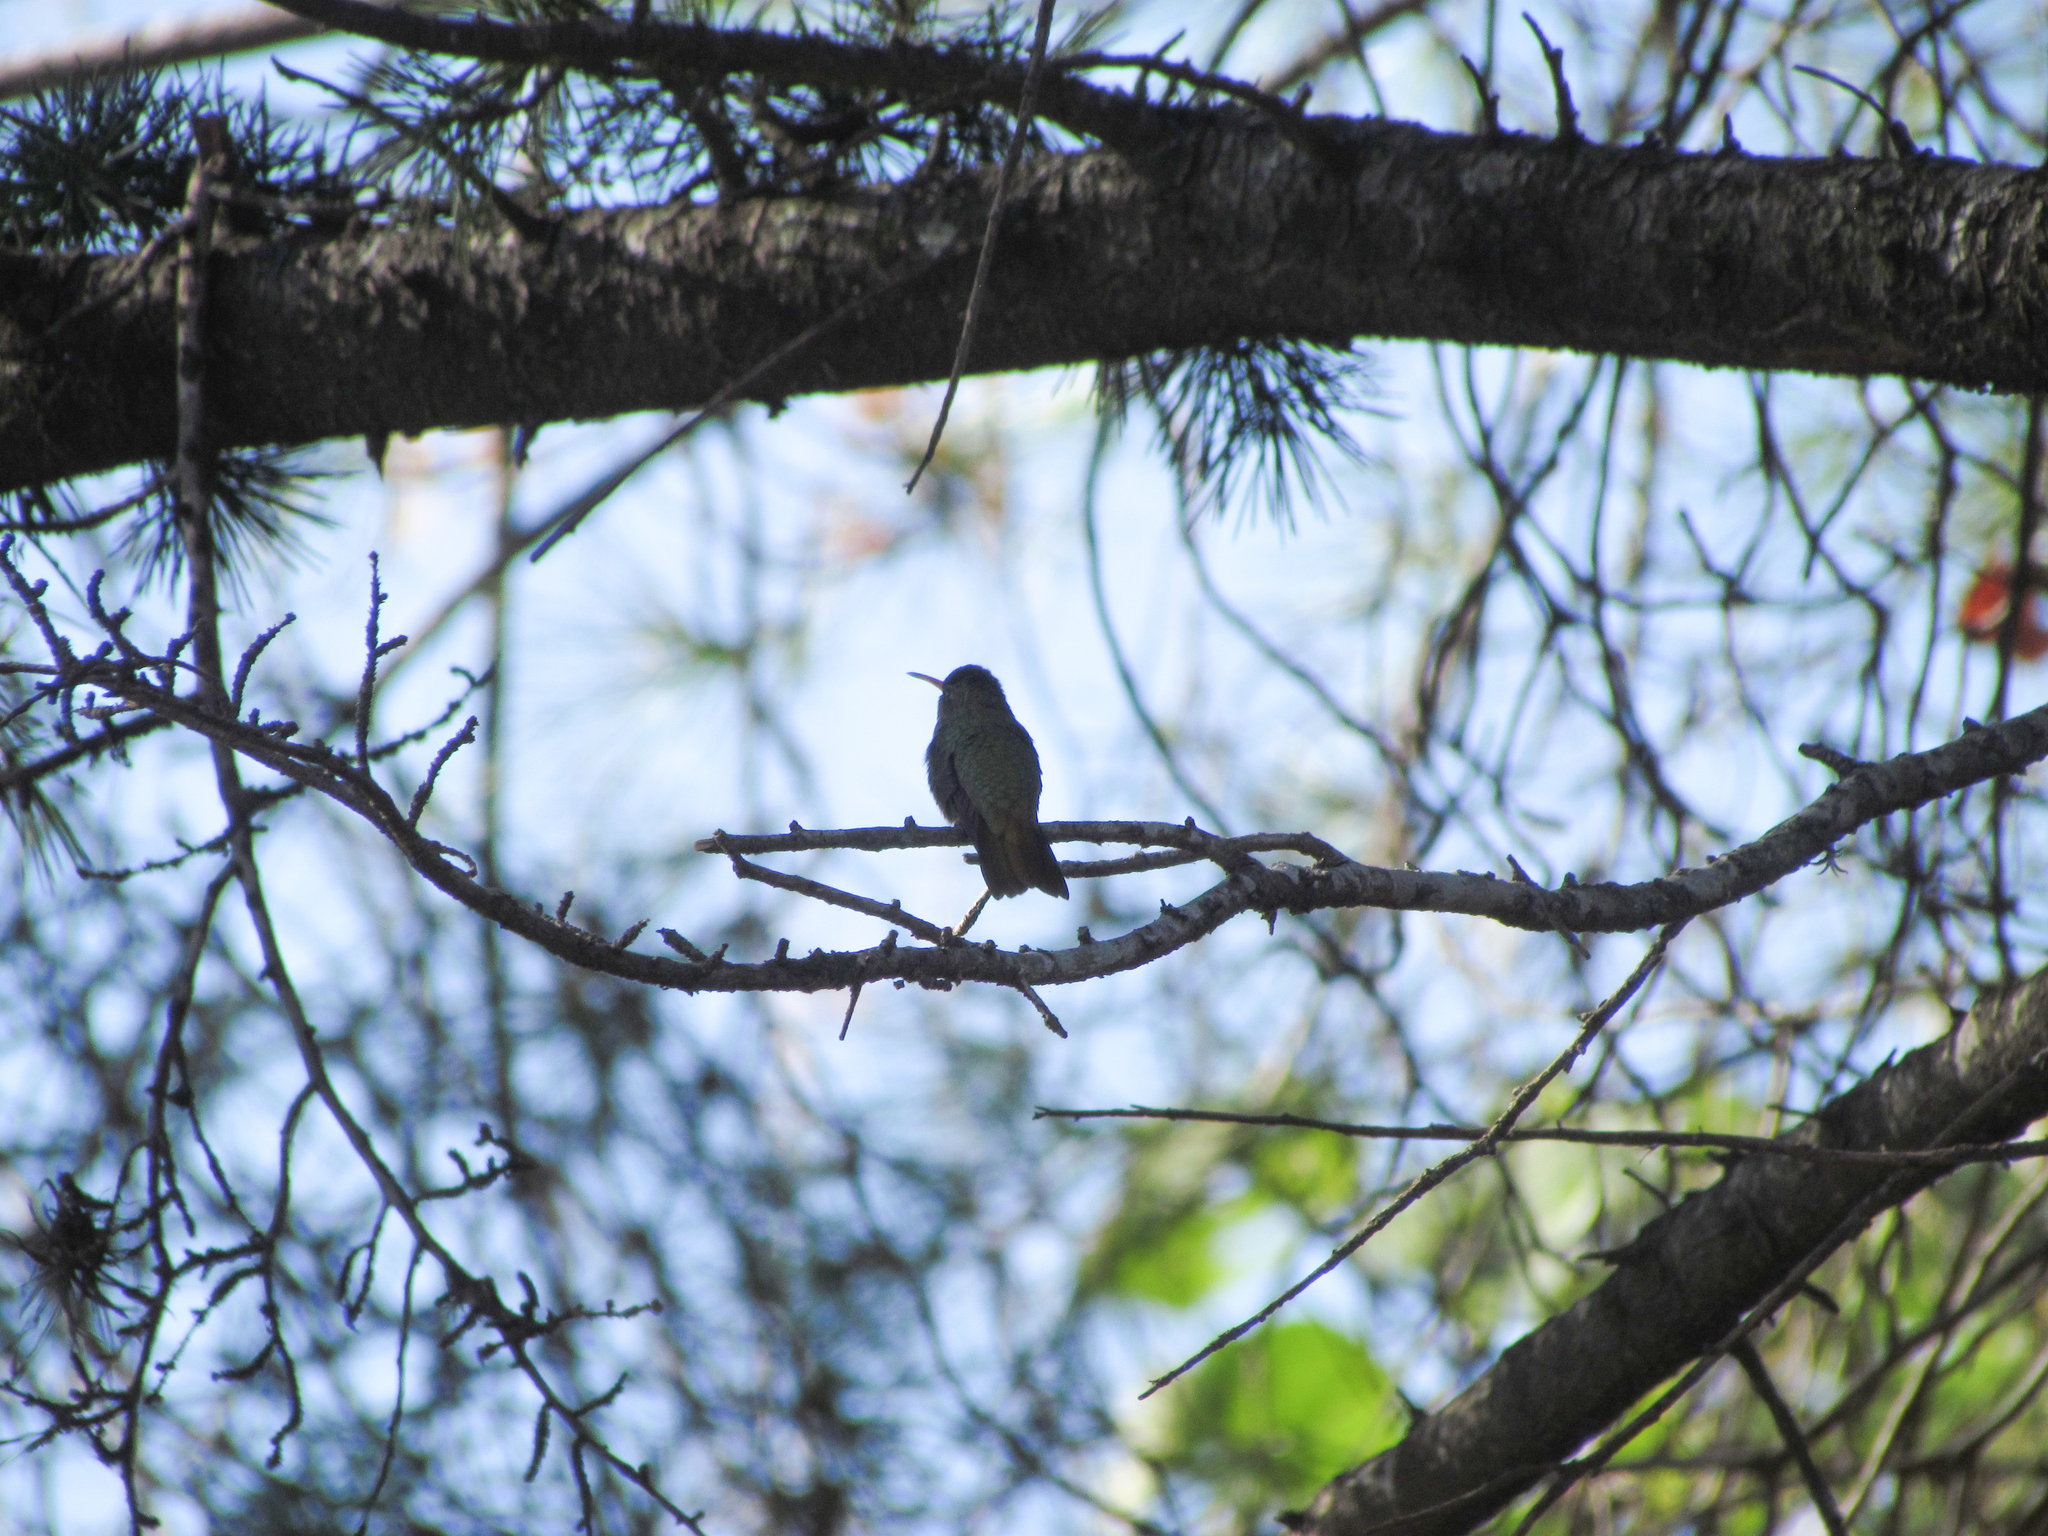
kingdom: Animalia
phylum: Chordata
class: Aves
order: Apodiformes
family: Trochilidae
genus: Hylocharis
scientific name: Hylocharis chrysura
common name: Gilded sapphire
